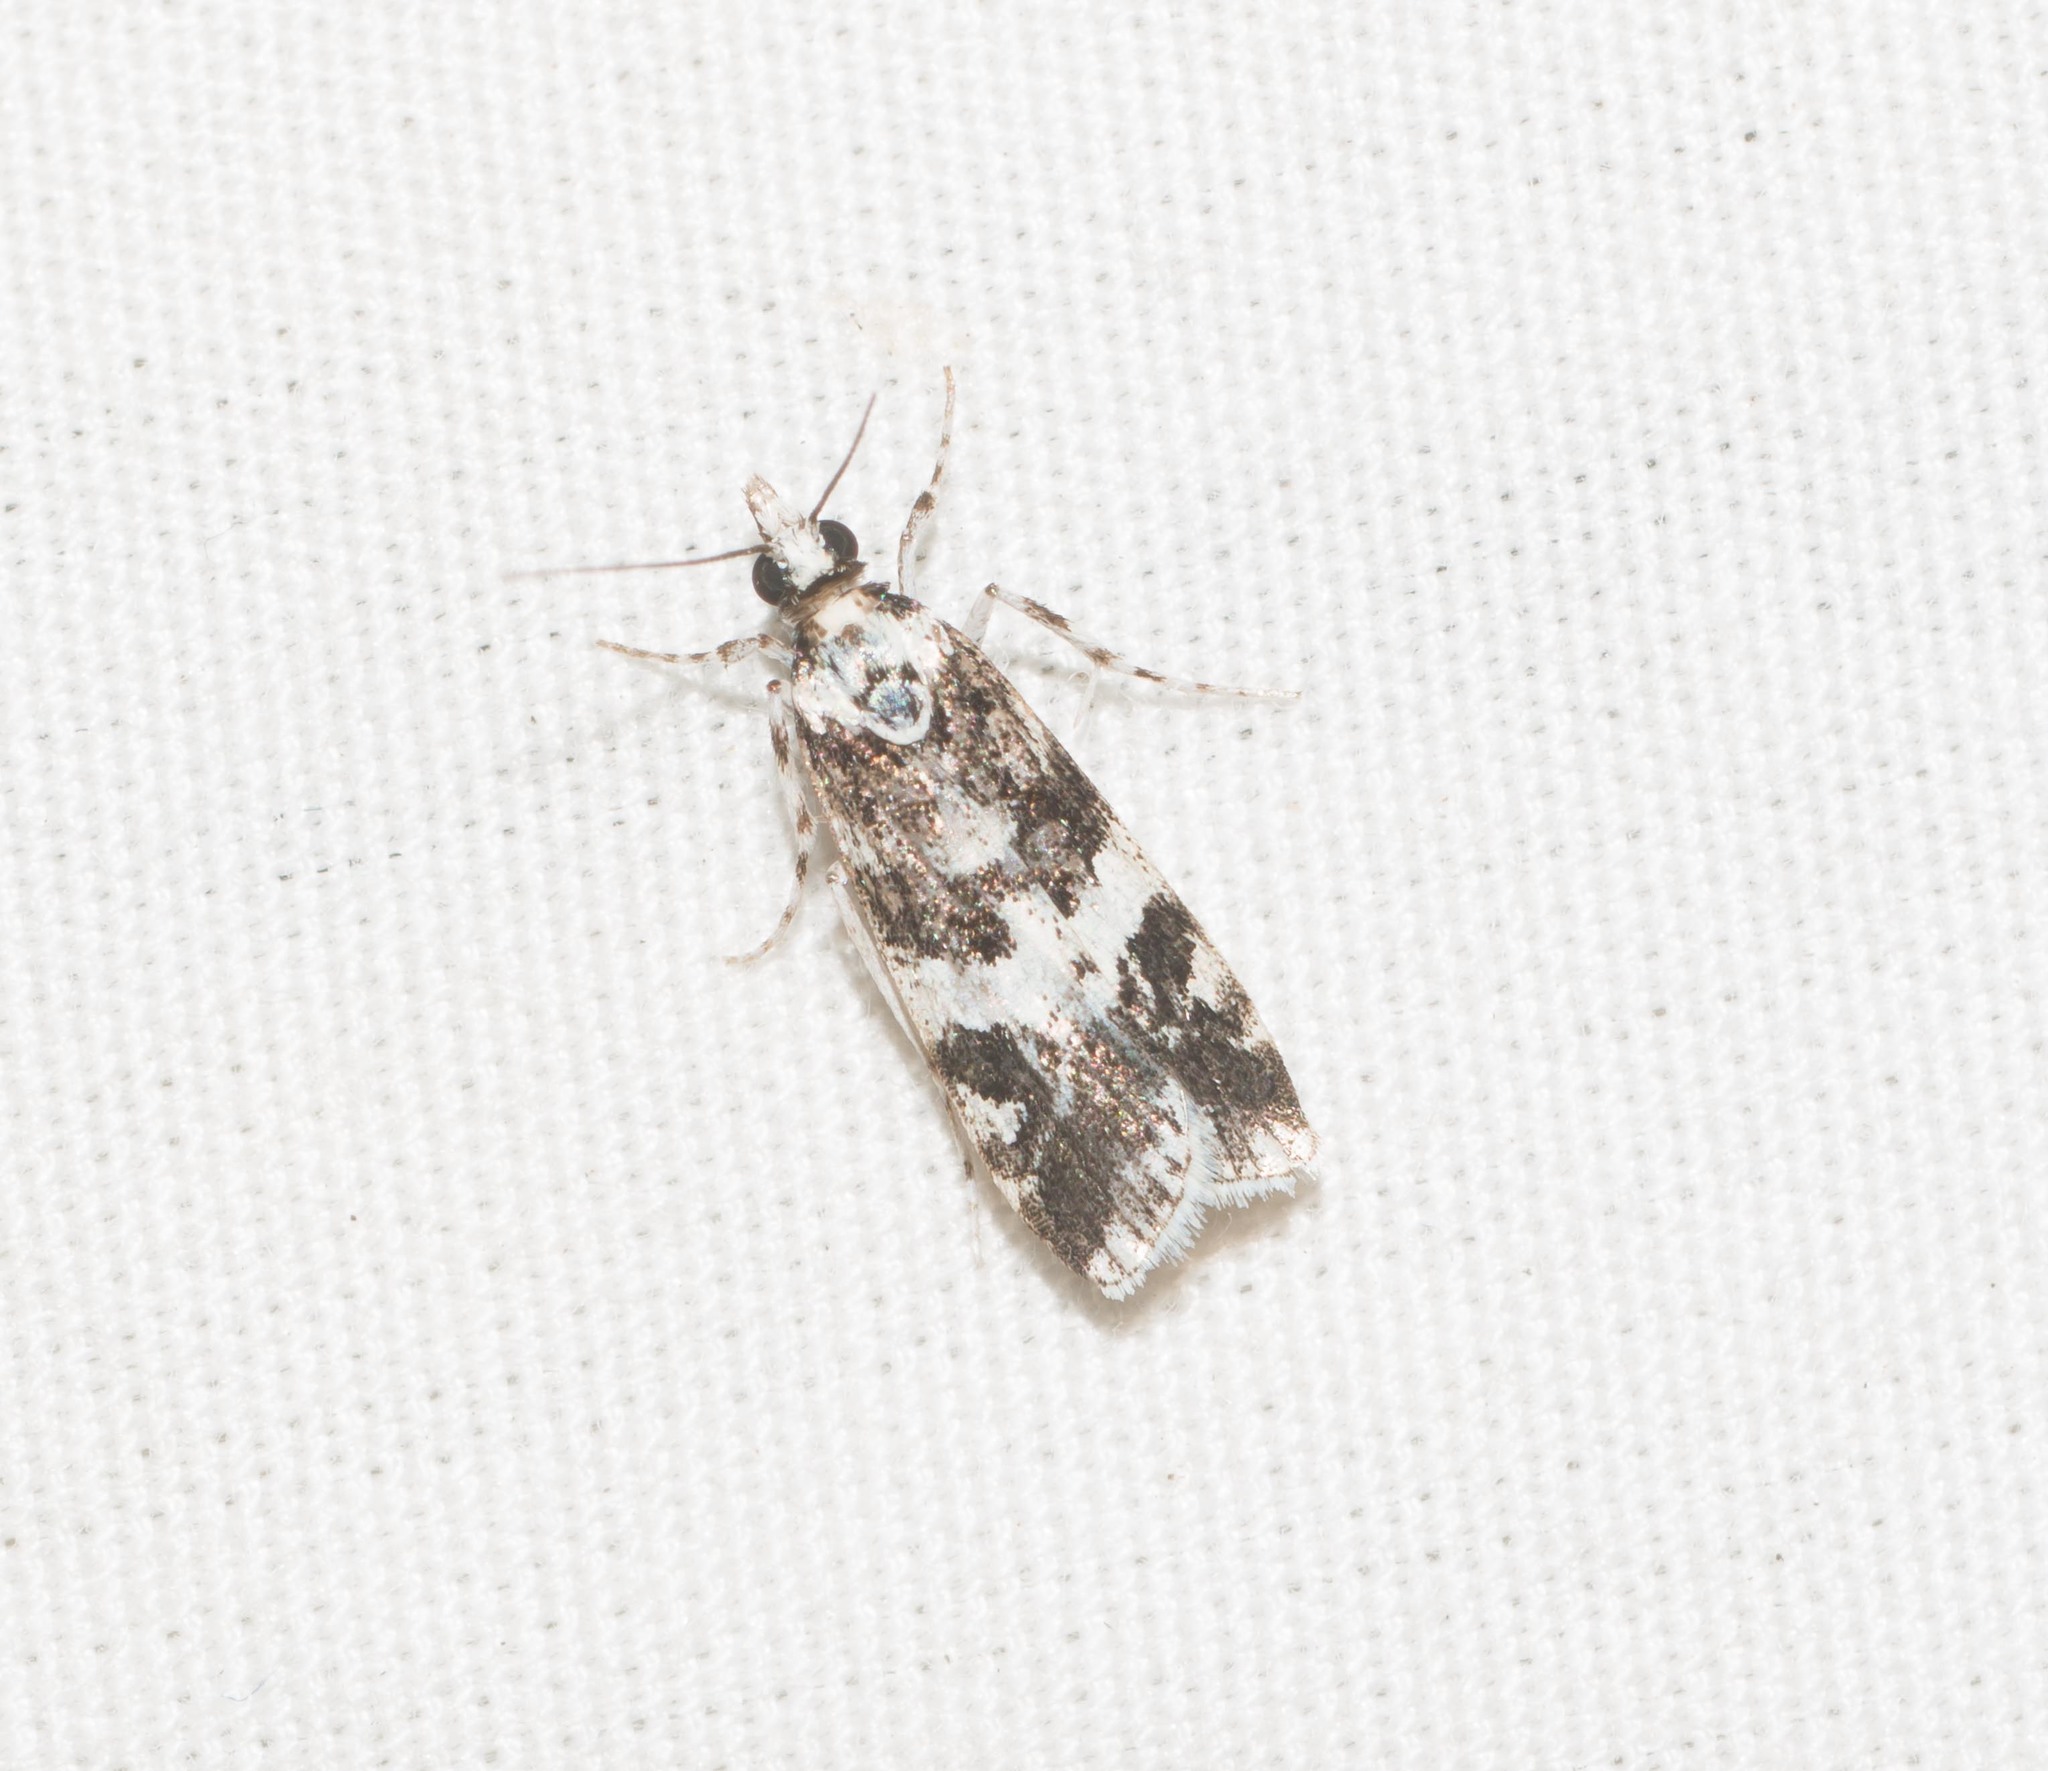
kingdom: Animalia
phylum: Arthropoda
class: Insecta
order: Lepidoptera
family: Crambidae
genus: Eudonia
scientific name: Eudonia mesoleuca
